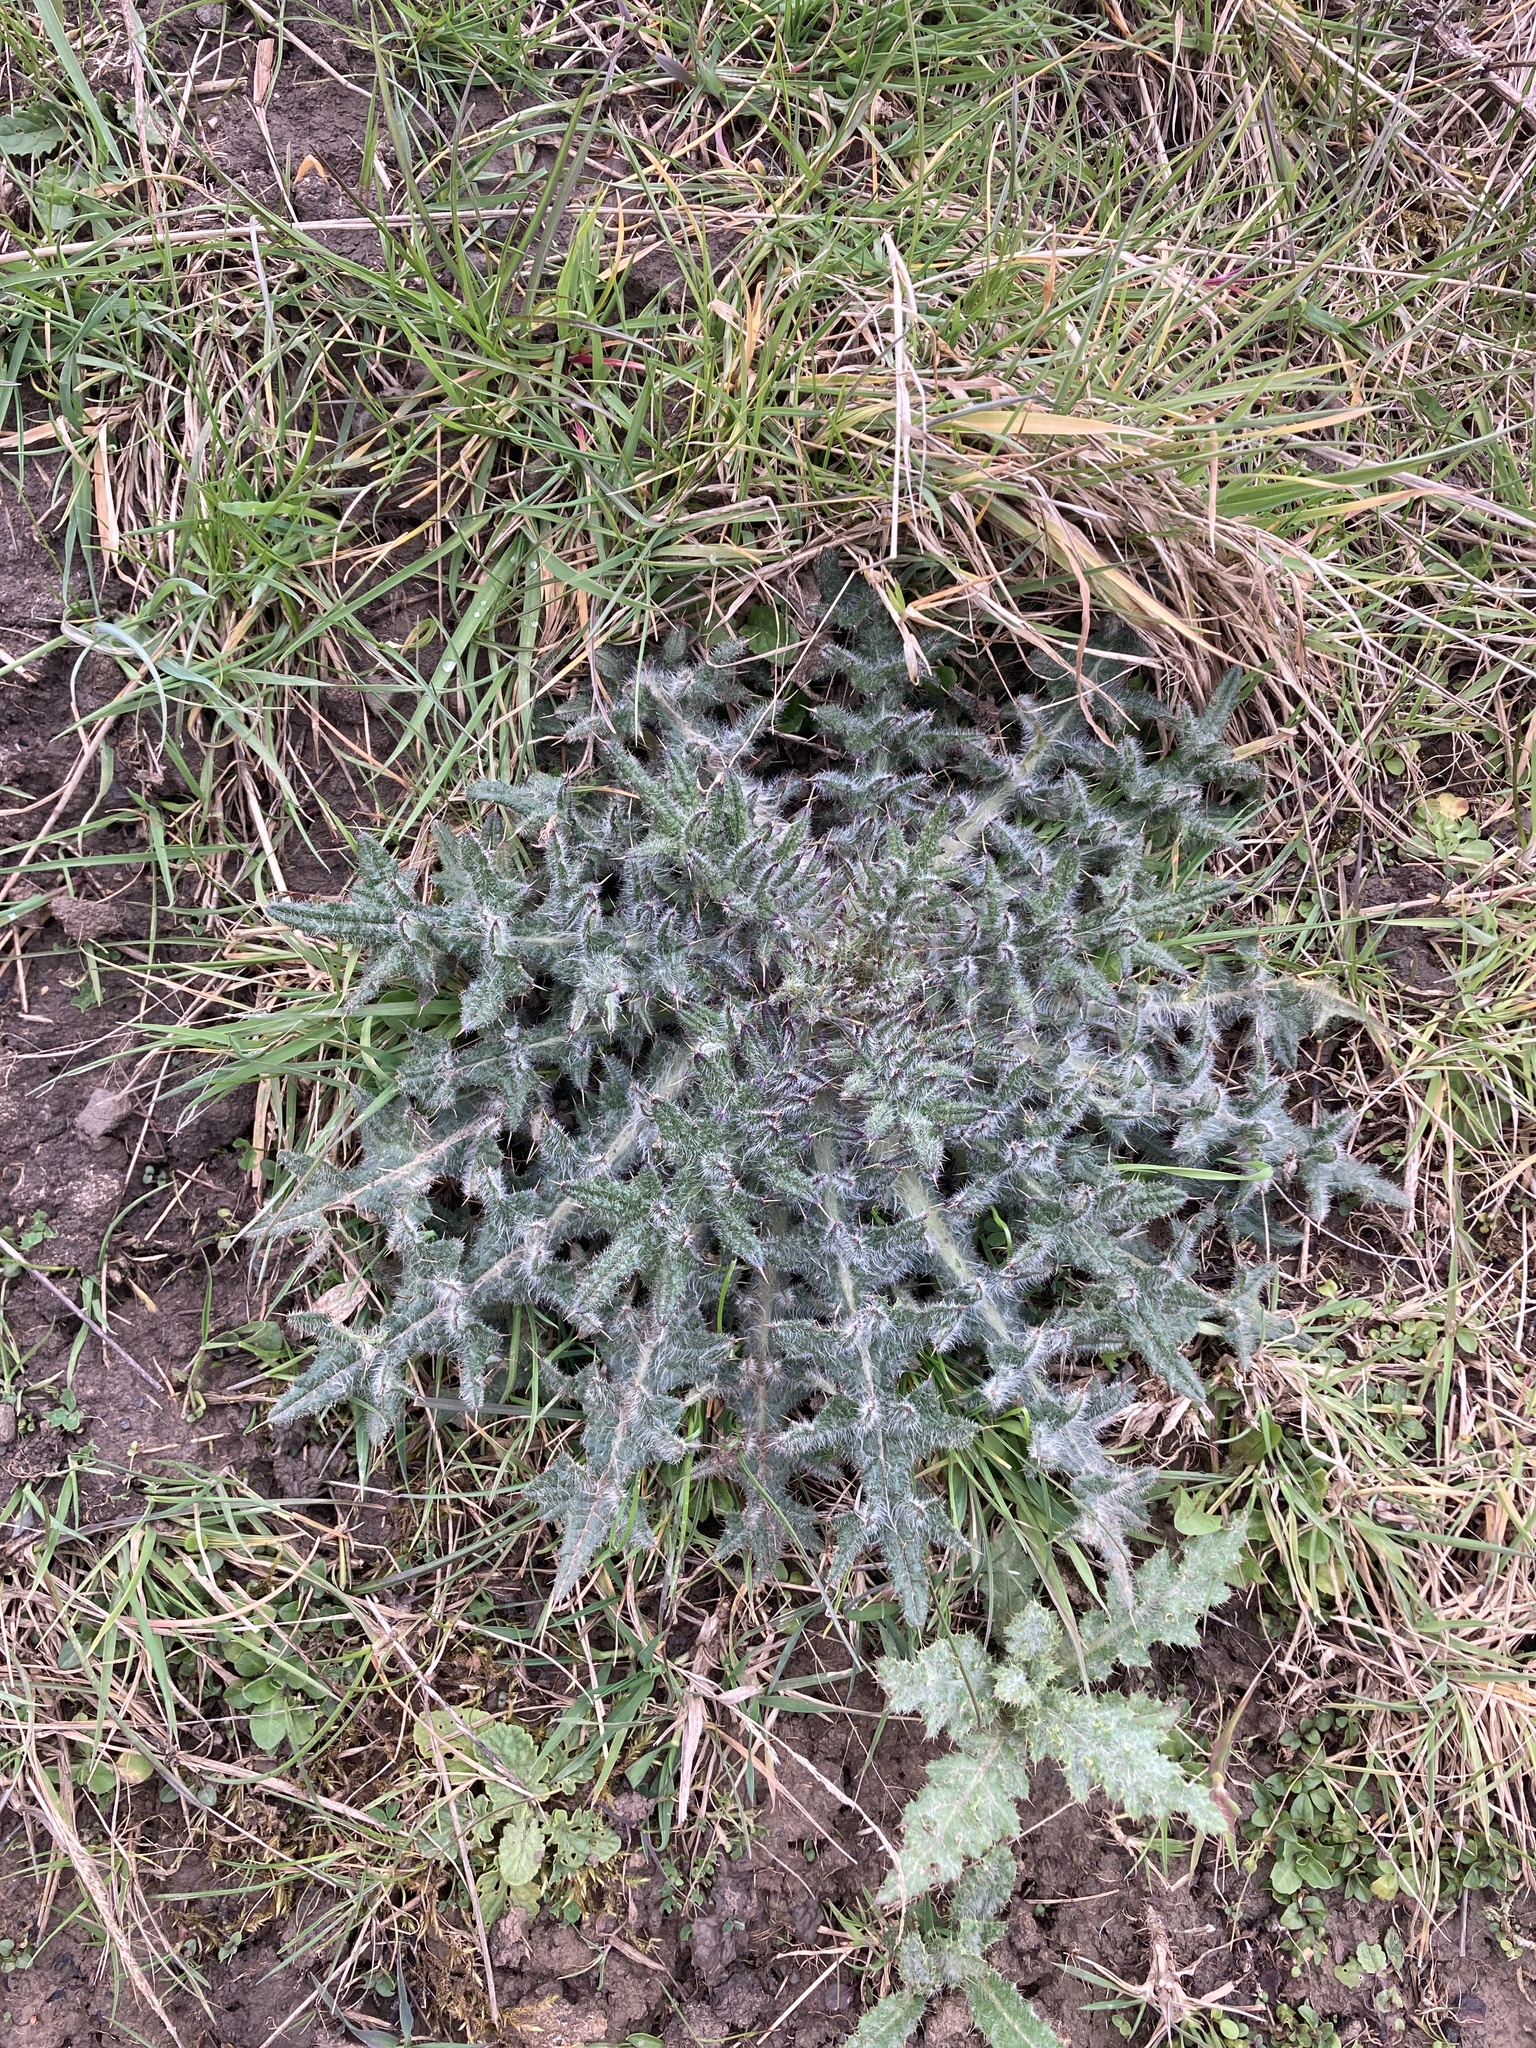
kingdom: Plantae
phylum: Tracheophyta
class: Magnoliopsida
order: Asterales
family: Asteraceae
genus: Cirsium
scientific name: Cirsium vulgare
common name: Bull thistle
